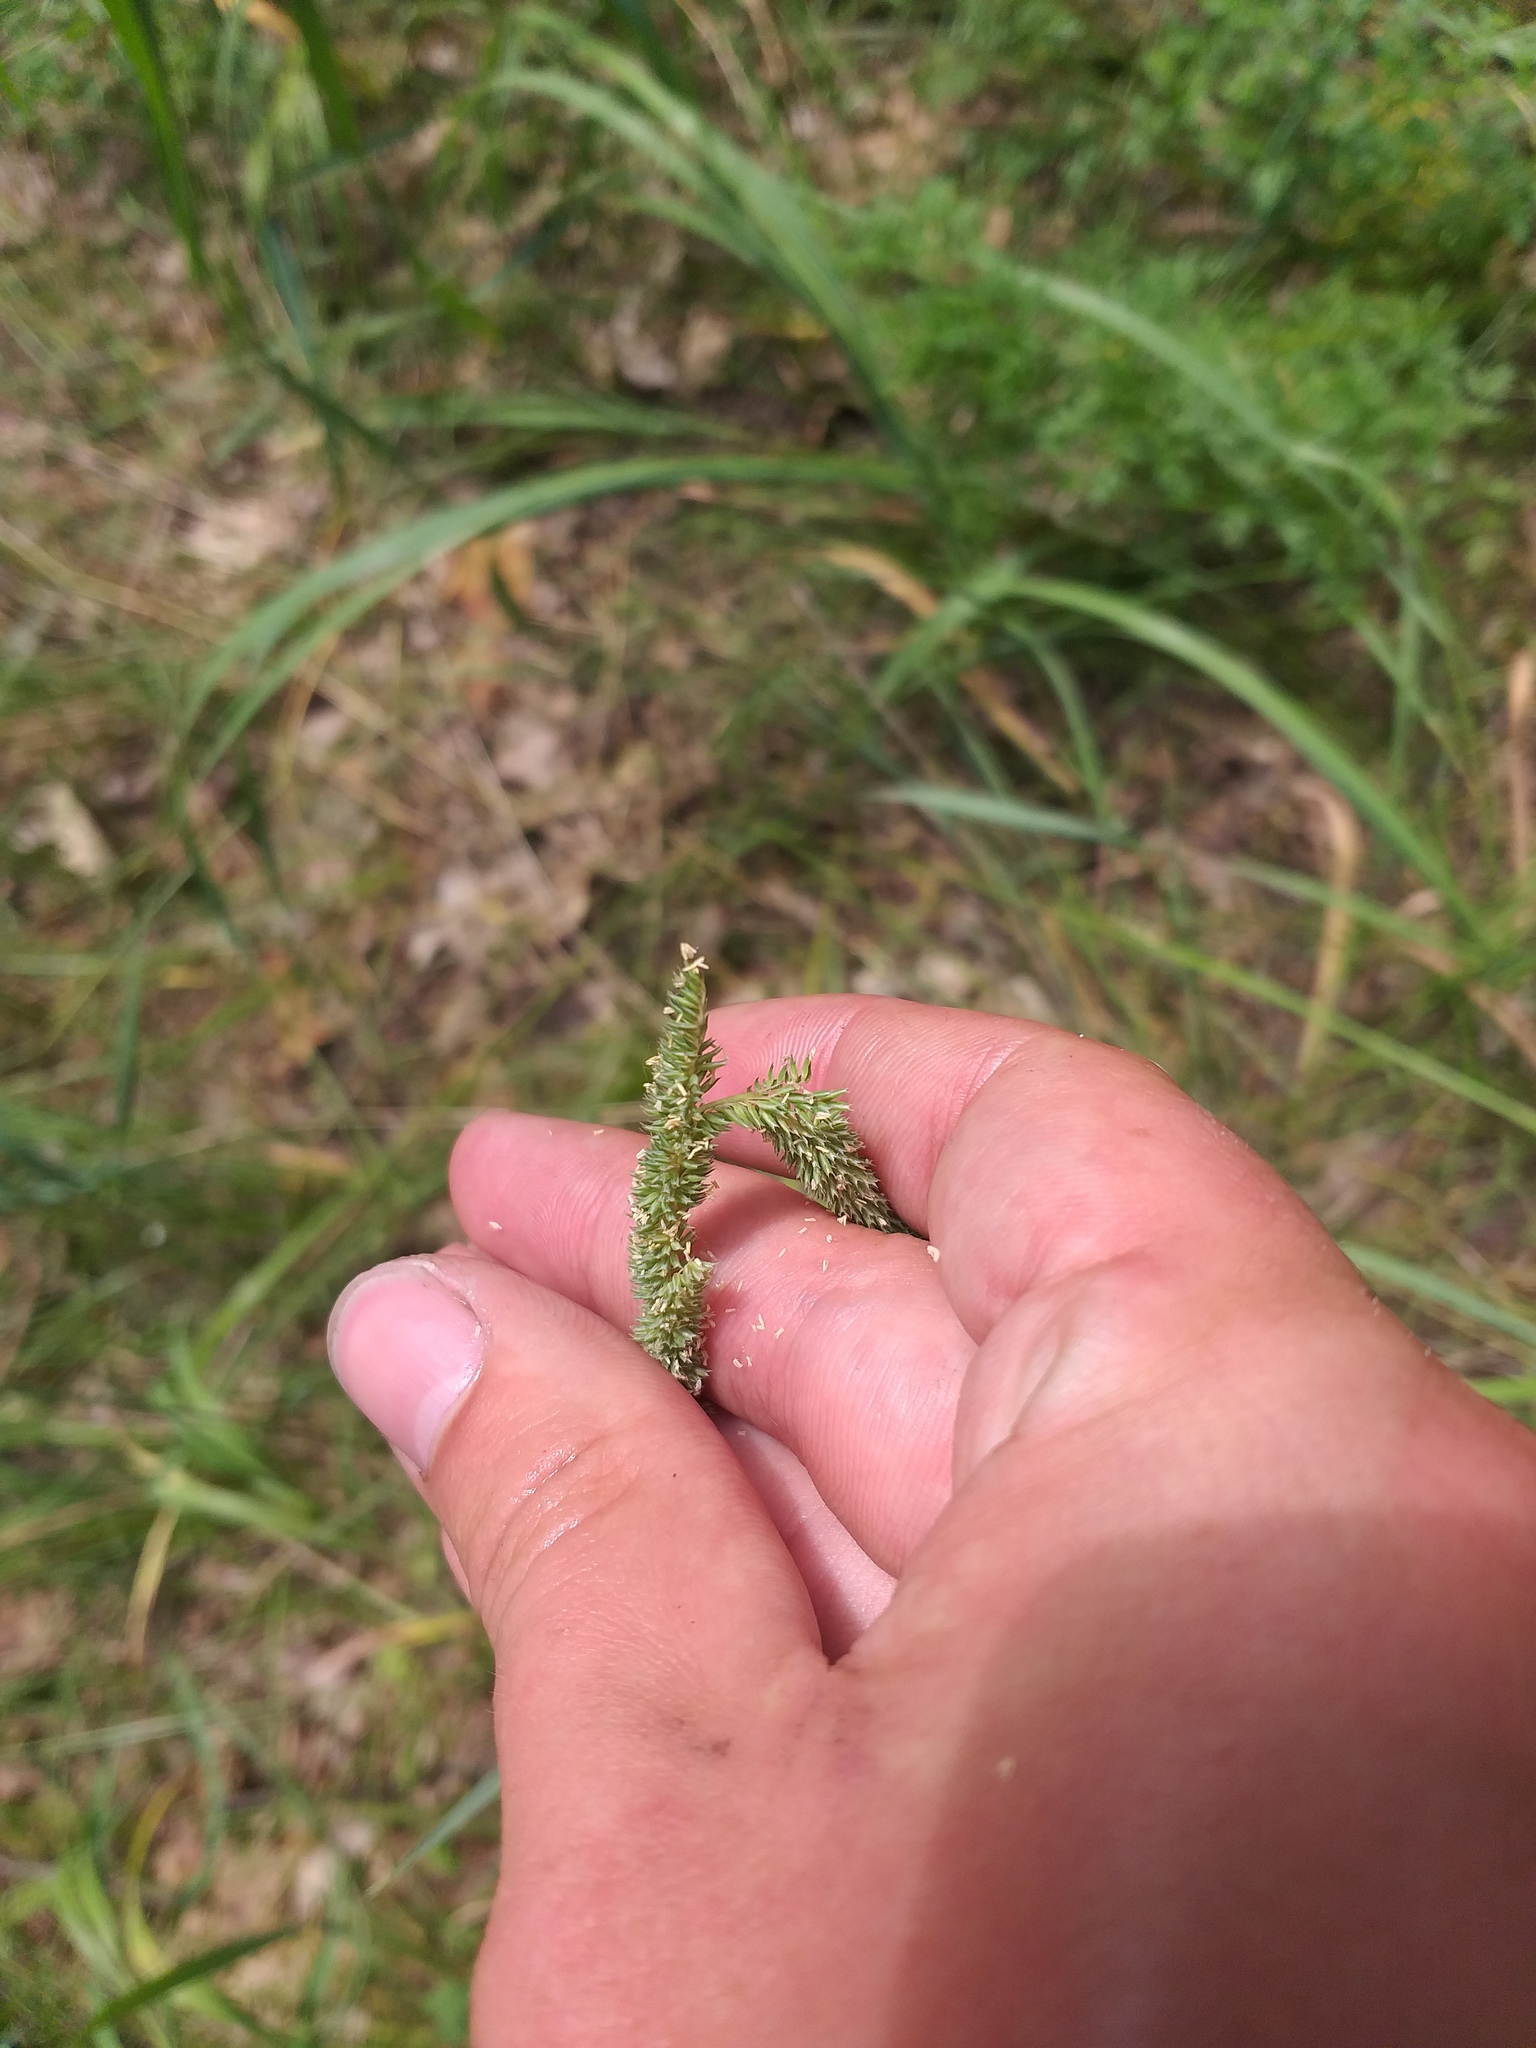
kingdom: Plantae
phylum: Tracheophyta
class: Liliopsida
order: Poales
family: Poaceae
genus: Phleum
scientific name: Phleum phleoides
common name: Purple-stem cat's-tail
